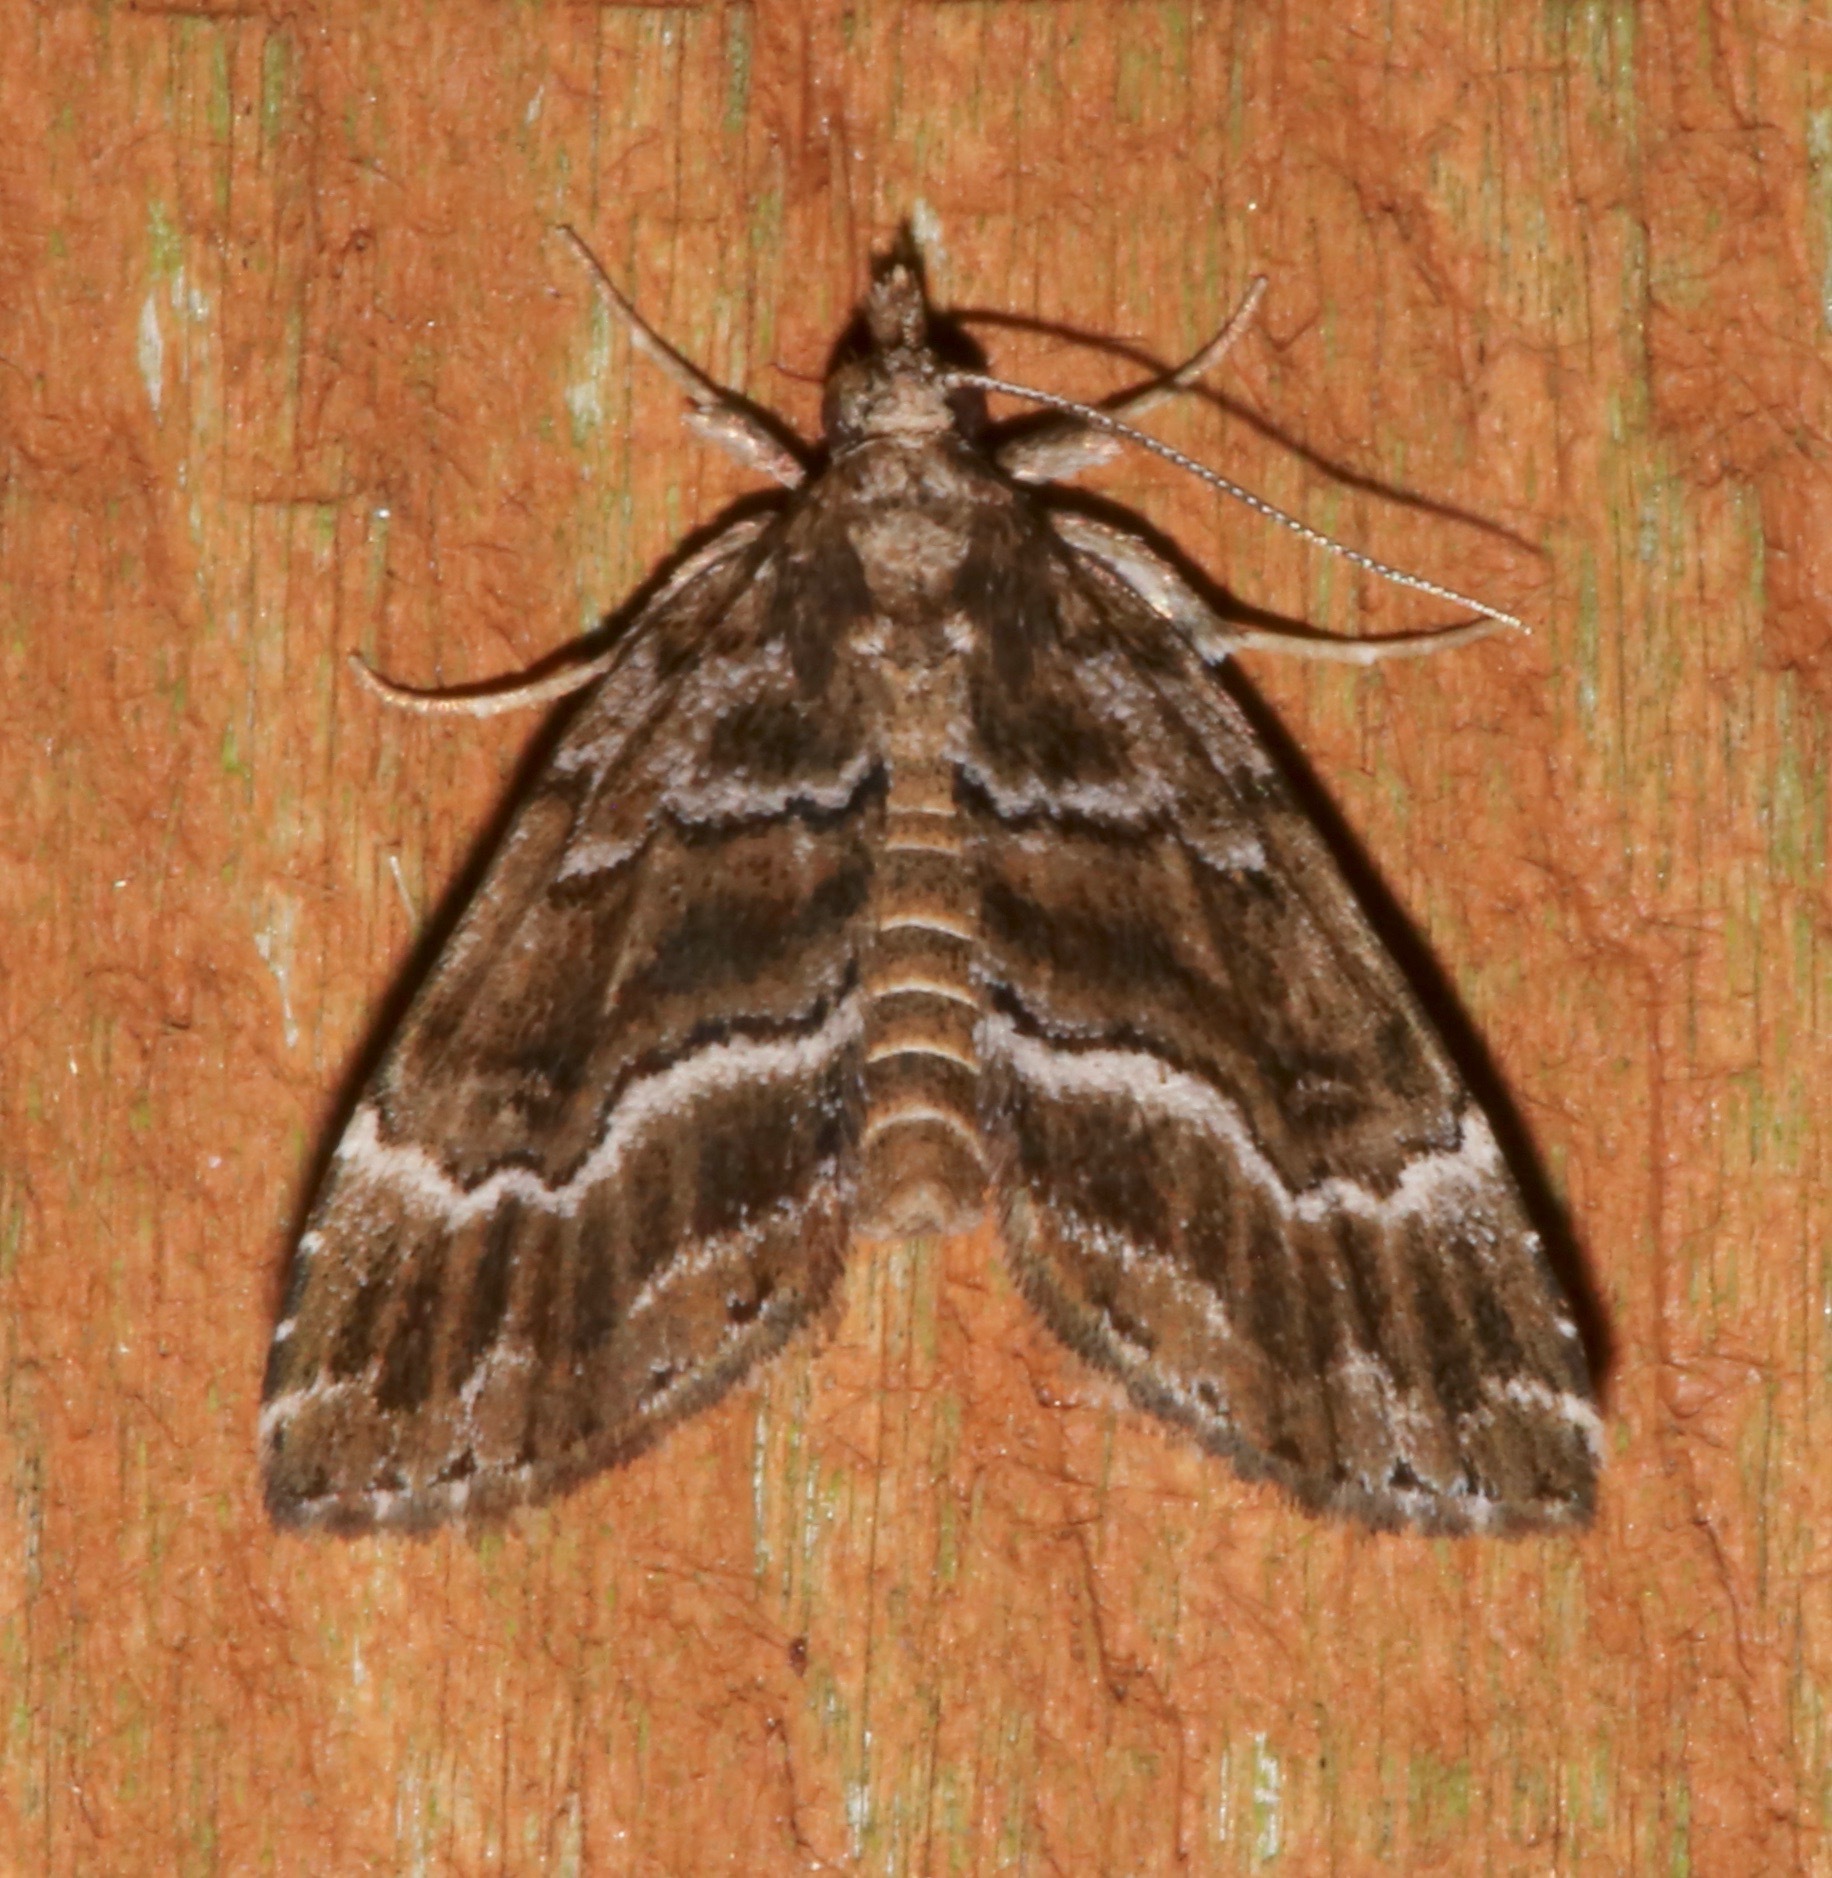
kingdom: Animalia
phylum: Arthropoda
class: Insecta
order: Lepidoptera
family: Erebidae
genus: Cutina
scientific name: Cutina arcuata
